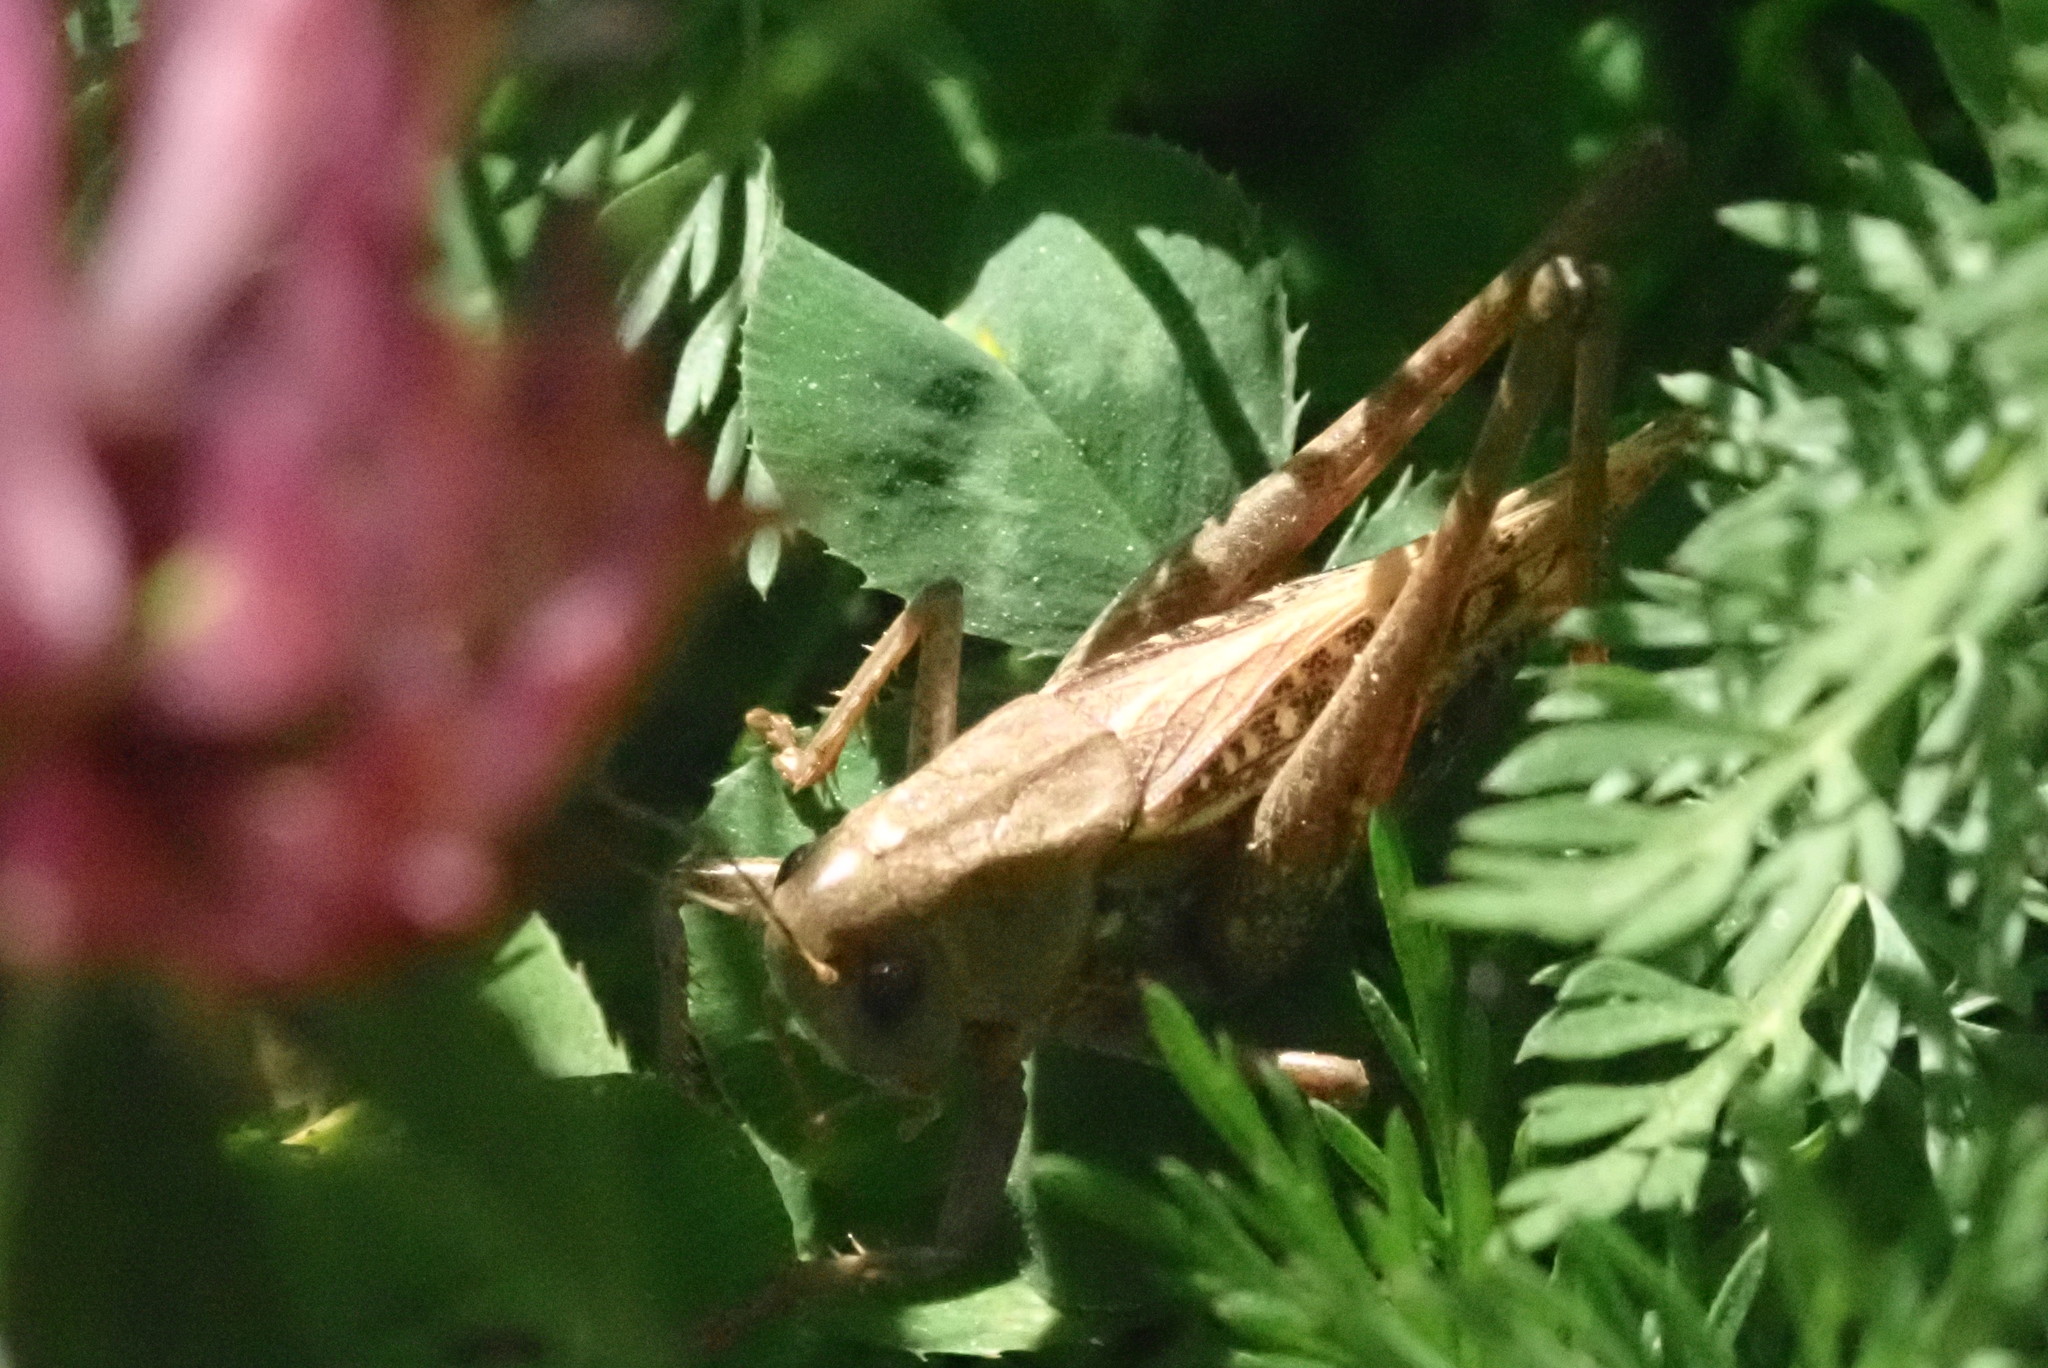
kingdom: Animalia
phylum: Arthropoda
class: Insecta
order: Orthoptera
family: Tettigoniidae
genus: Decticus
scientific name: Decticus verrucivorus
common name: Wart-biter
